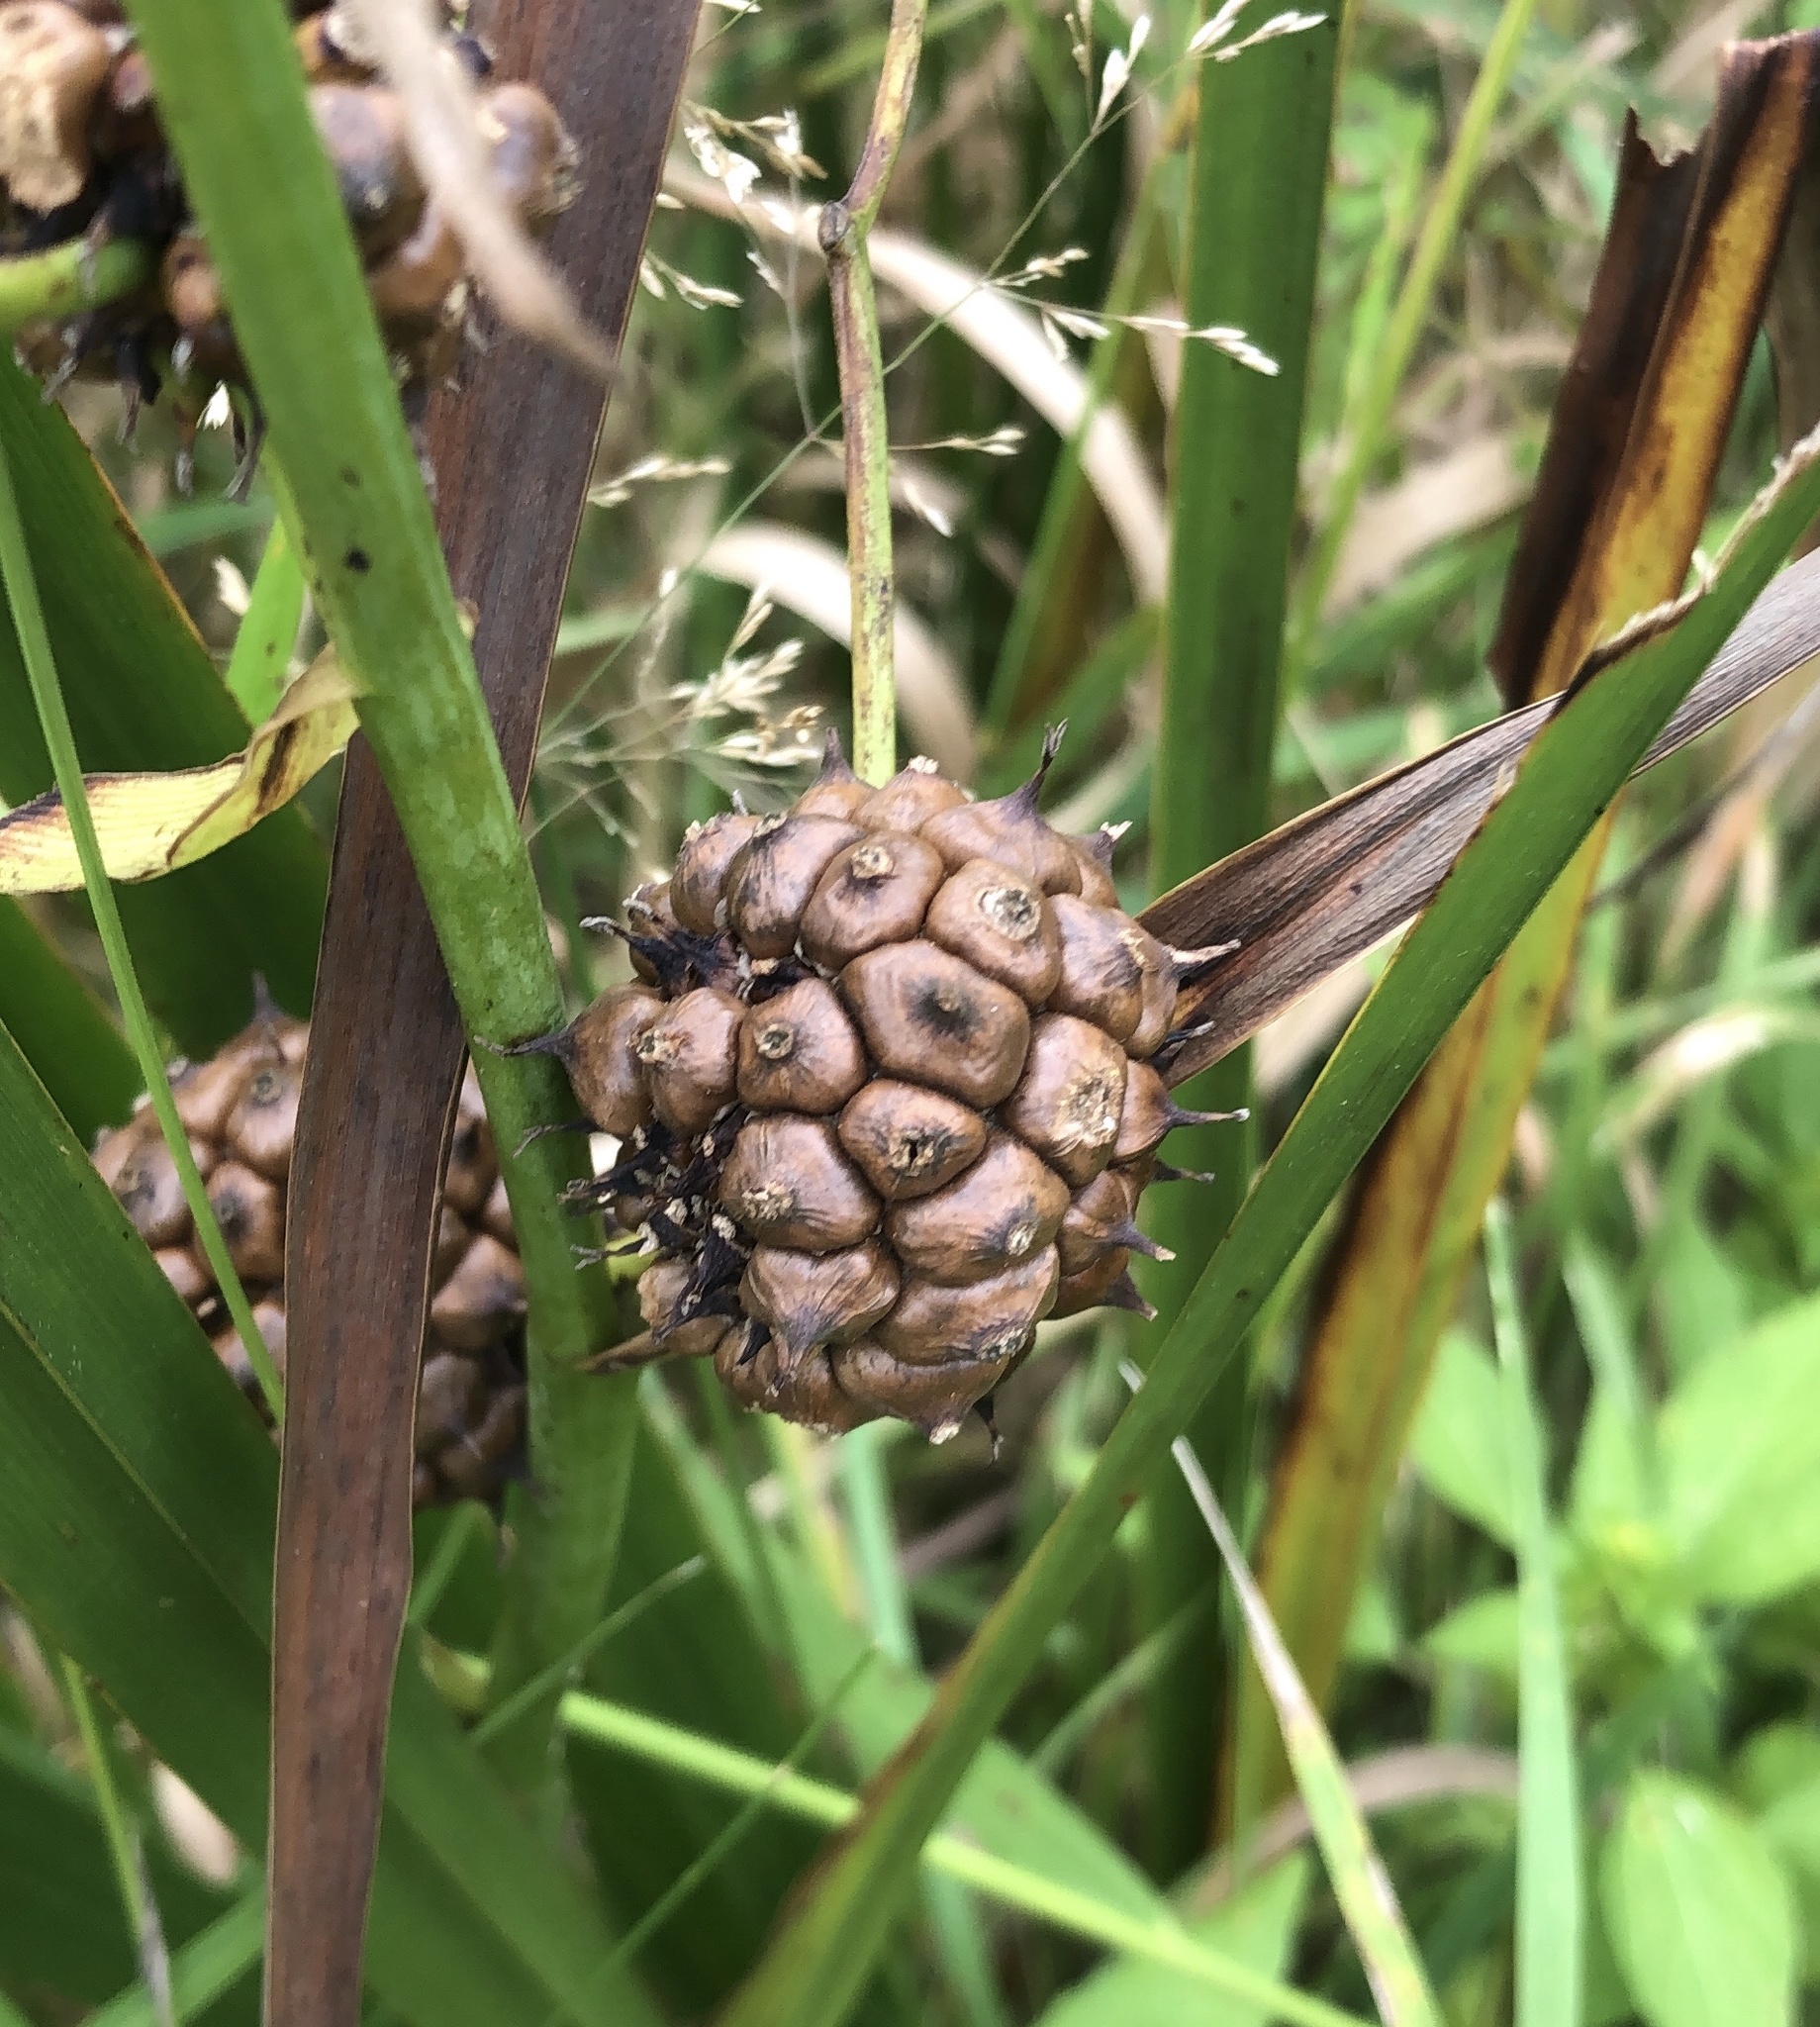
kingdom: Plantae
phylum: Tracheophyta
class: Liliopsida
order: Poales
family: Typhaceae
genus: Sparganium
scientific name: Sparganium eurycarpum
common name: Broad-fruited burreed
